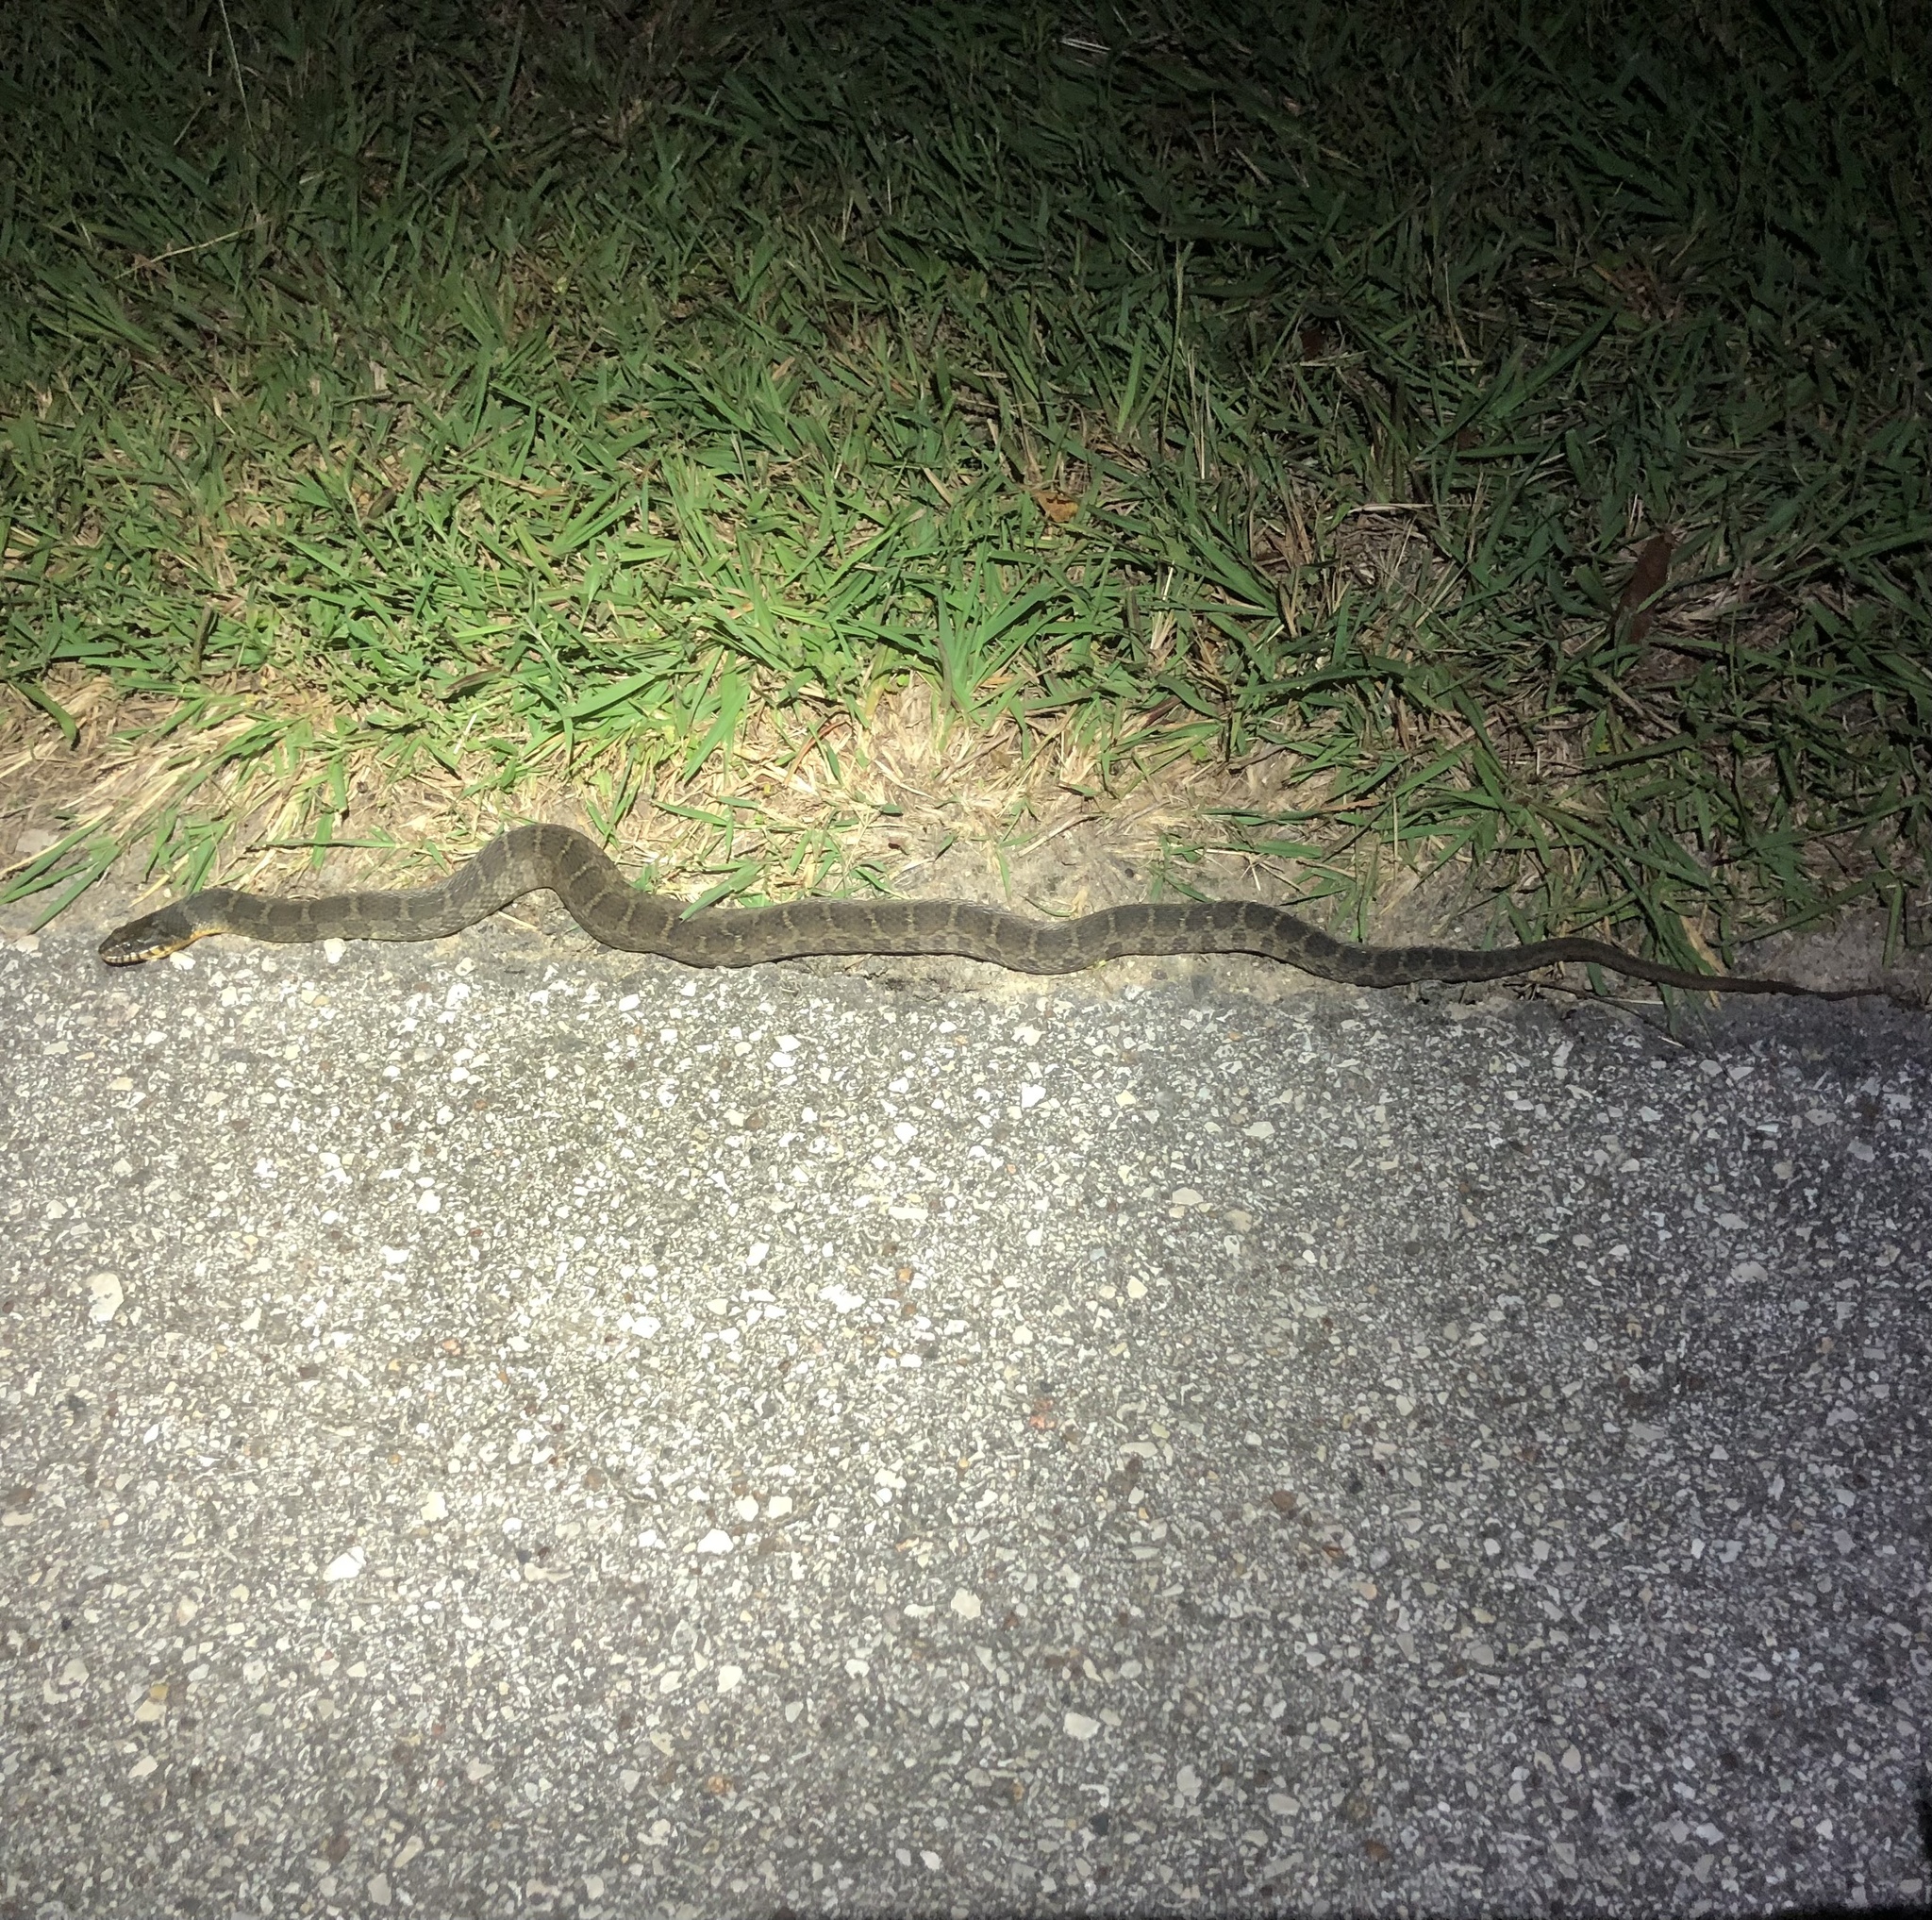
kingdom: Animalia
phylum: Chordata
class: Squamata
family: Colubridae
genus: Nerodia
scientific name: Nerodia erythrogaster
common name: Plainbelly water snake
